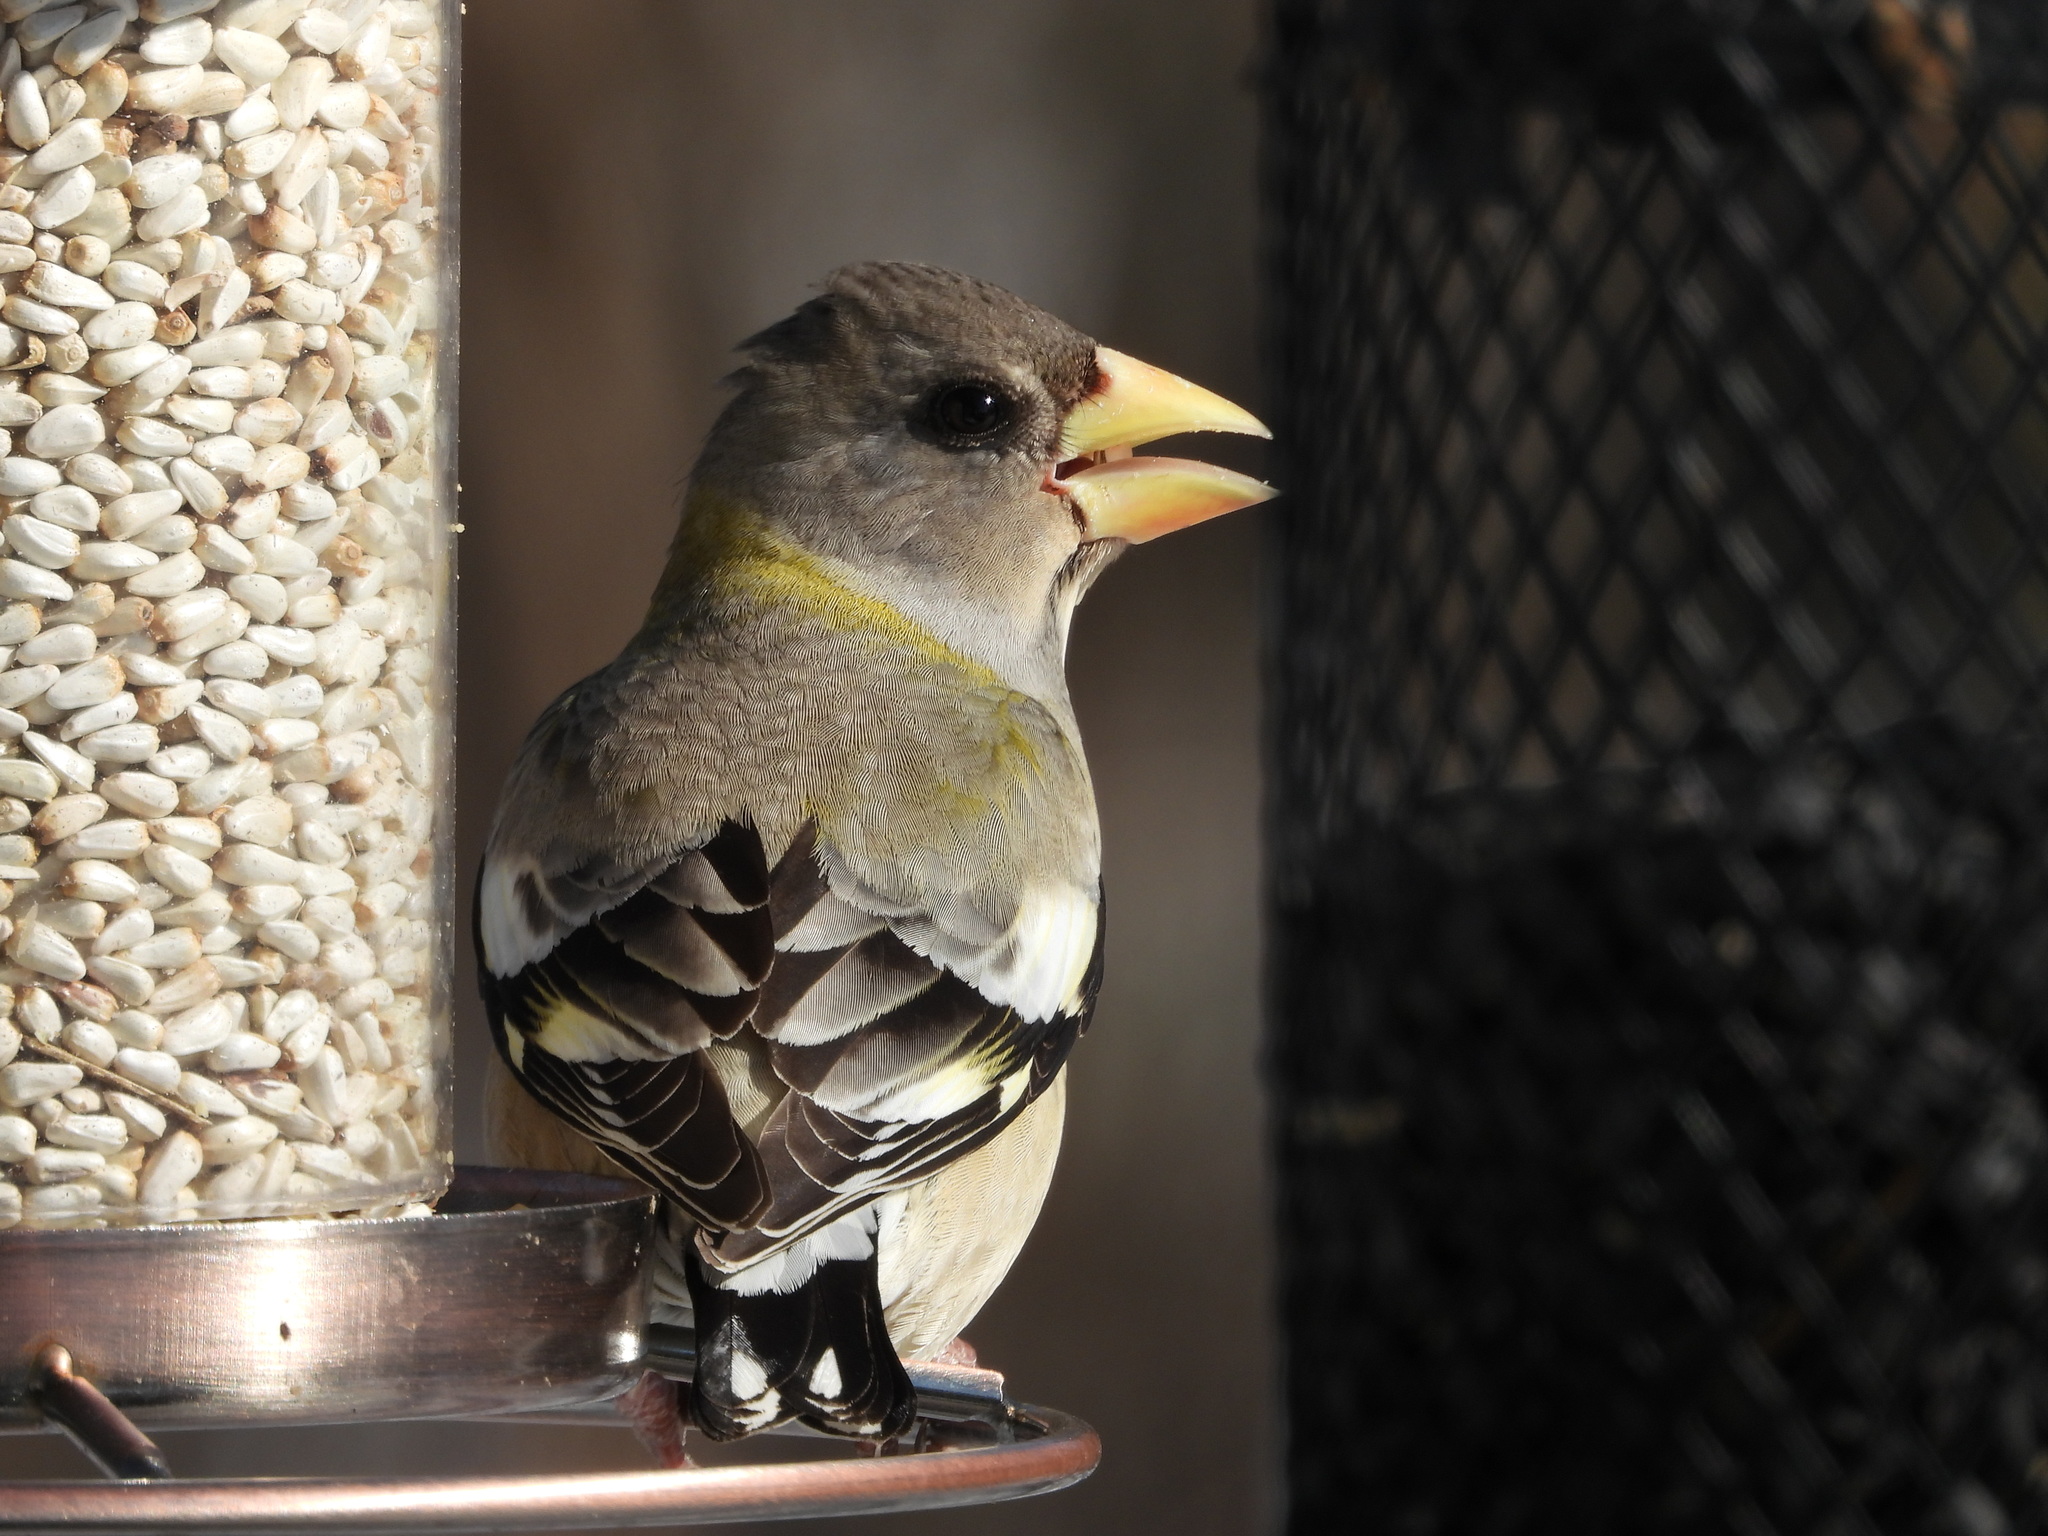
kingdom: Animalia
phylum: Chordata
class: Aves
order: Passeriformes
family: Fringillidae
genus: Hesperiphona
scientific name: Hesperiphona vespertina
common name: Evening grosbeak
